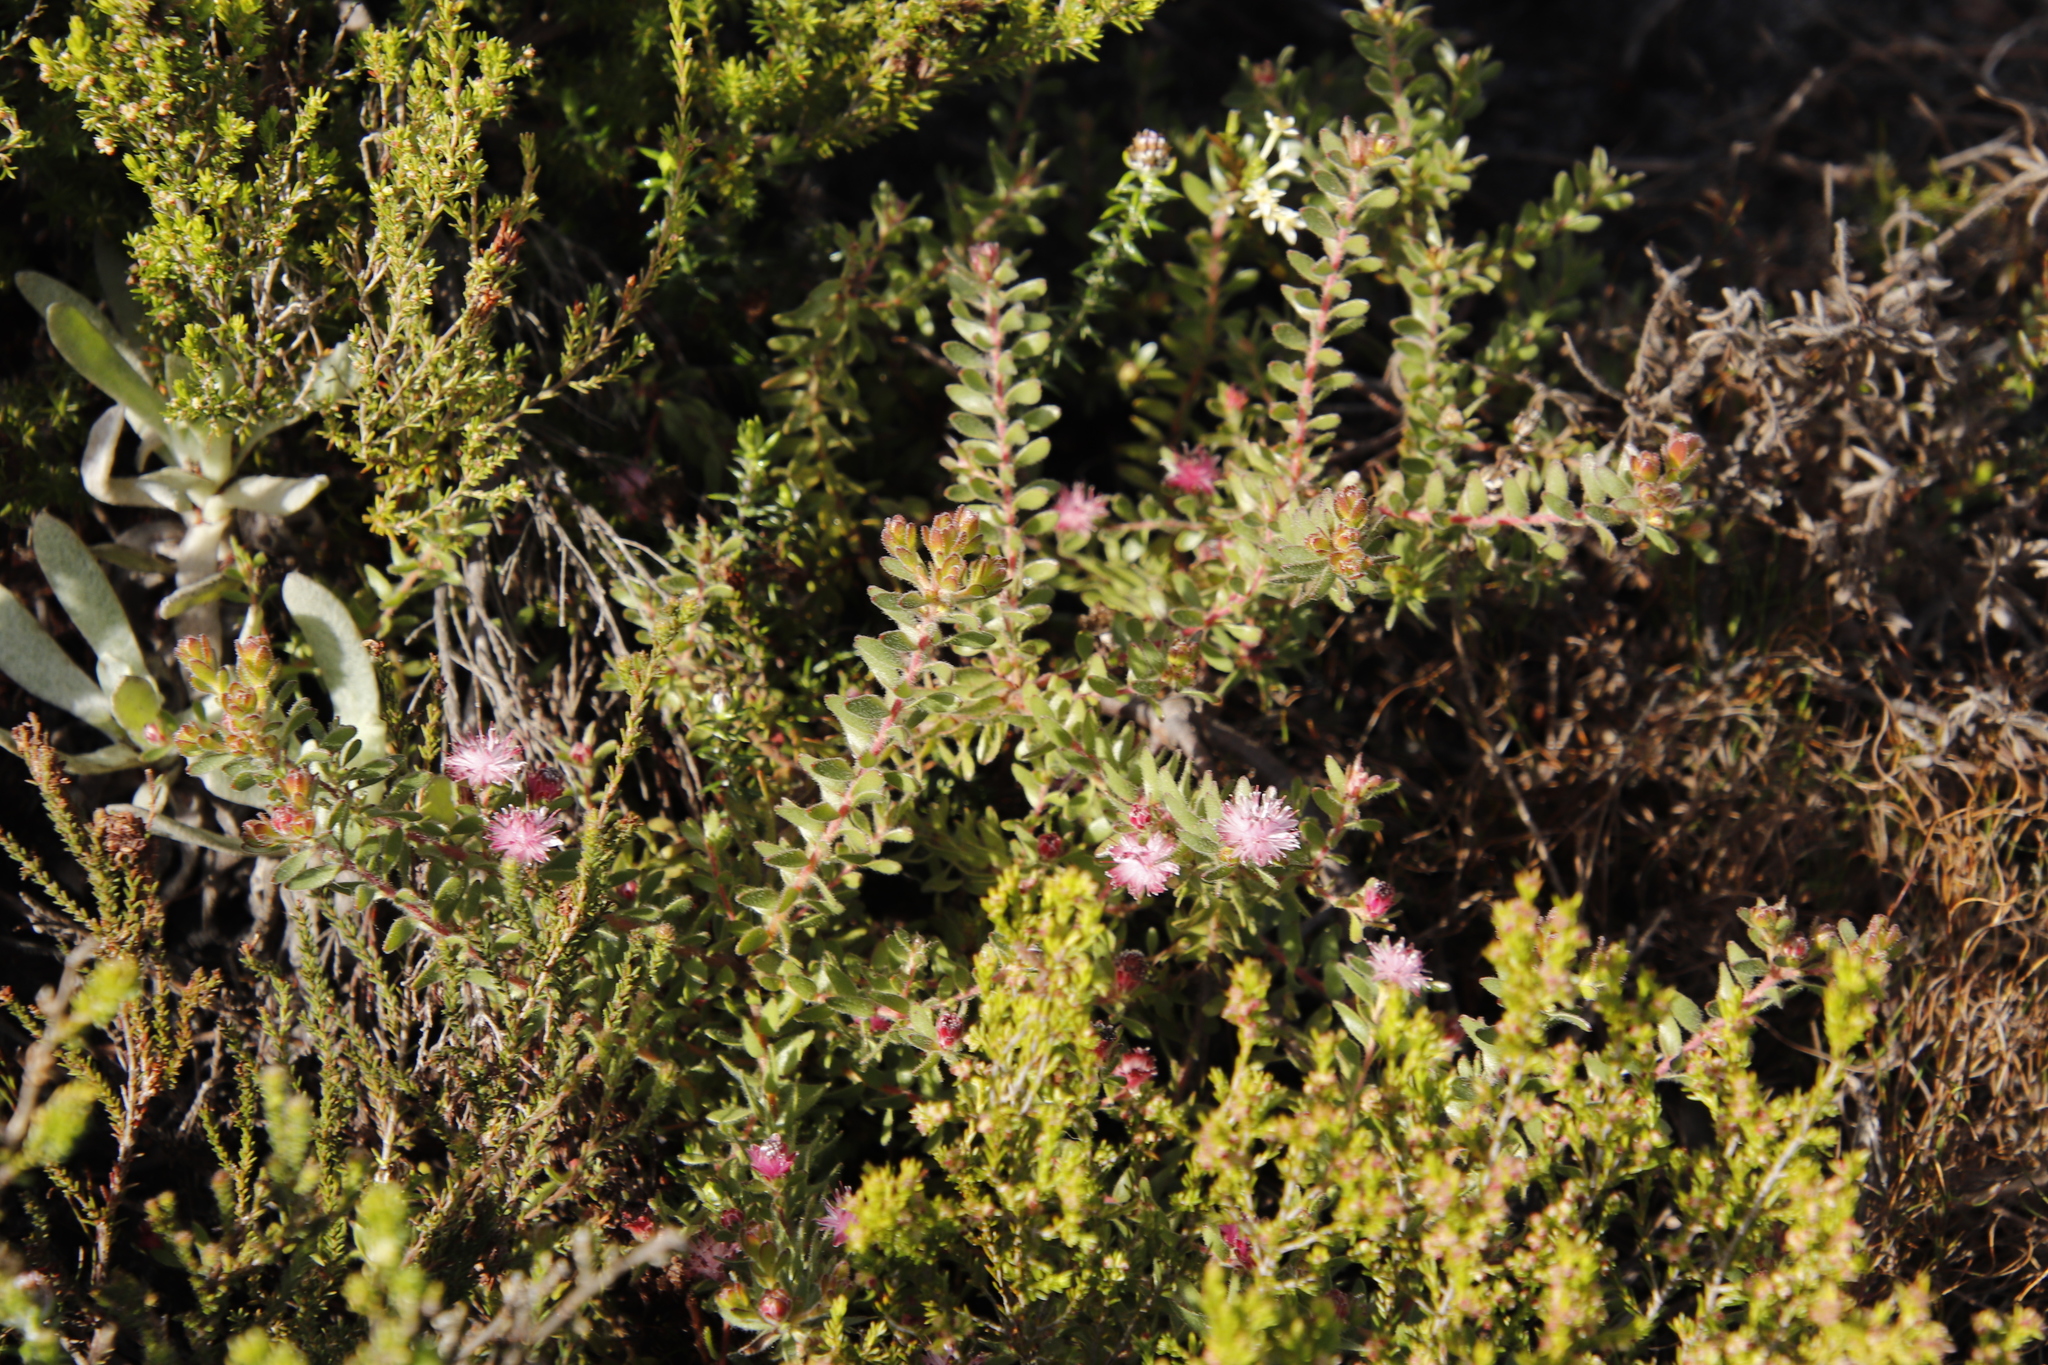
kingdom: Plantae
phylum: Tracheophyta
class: Magnoliopsida
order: Proteales
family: Proteaceae
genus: Diastella
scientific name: Diastella divaricata
